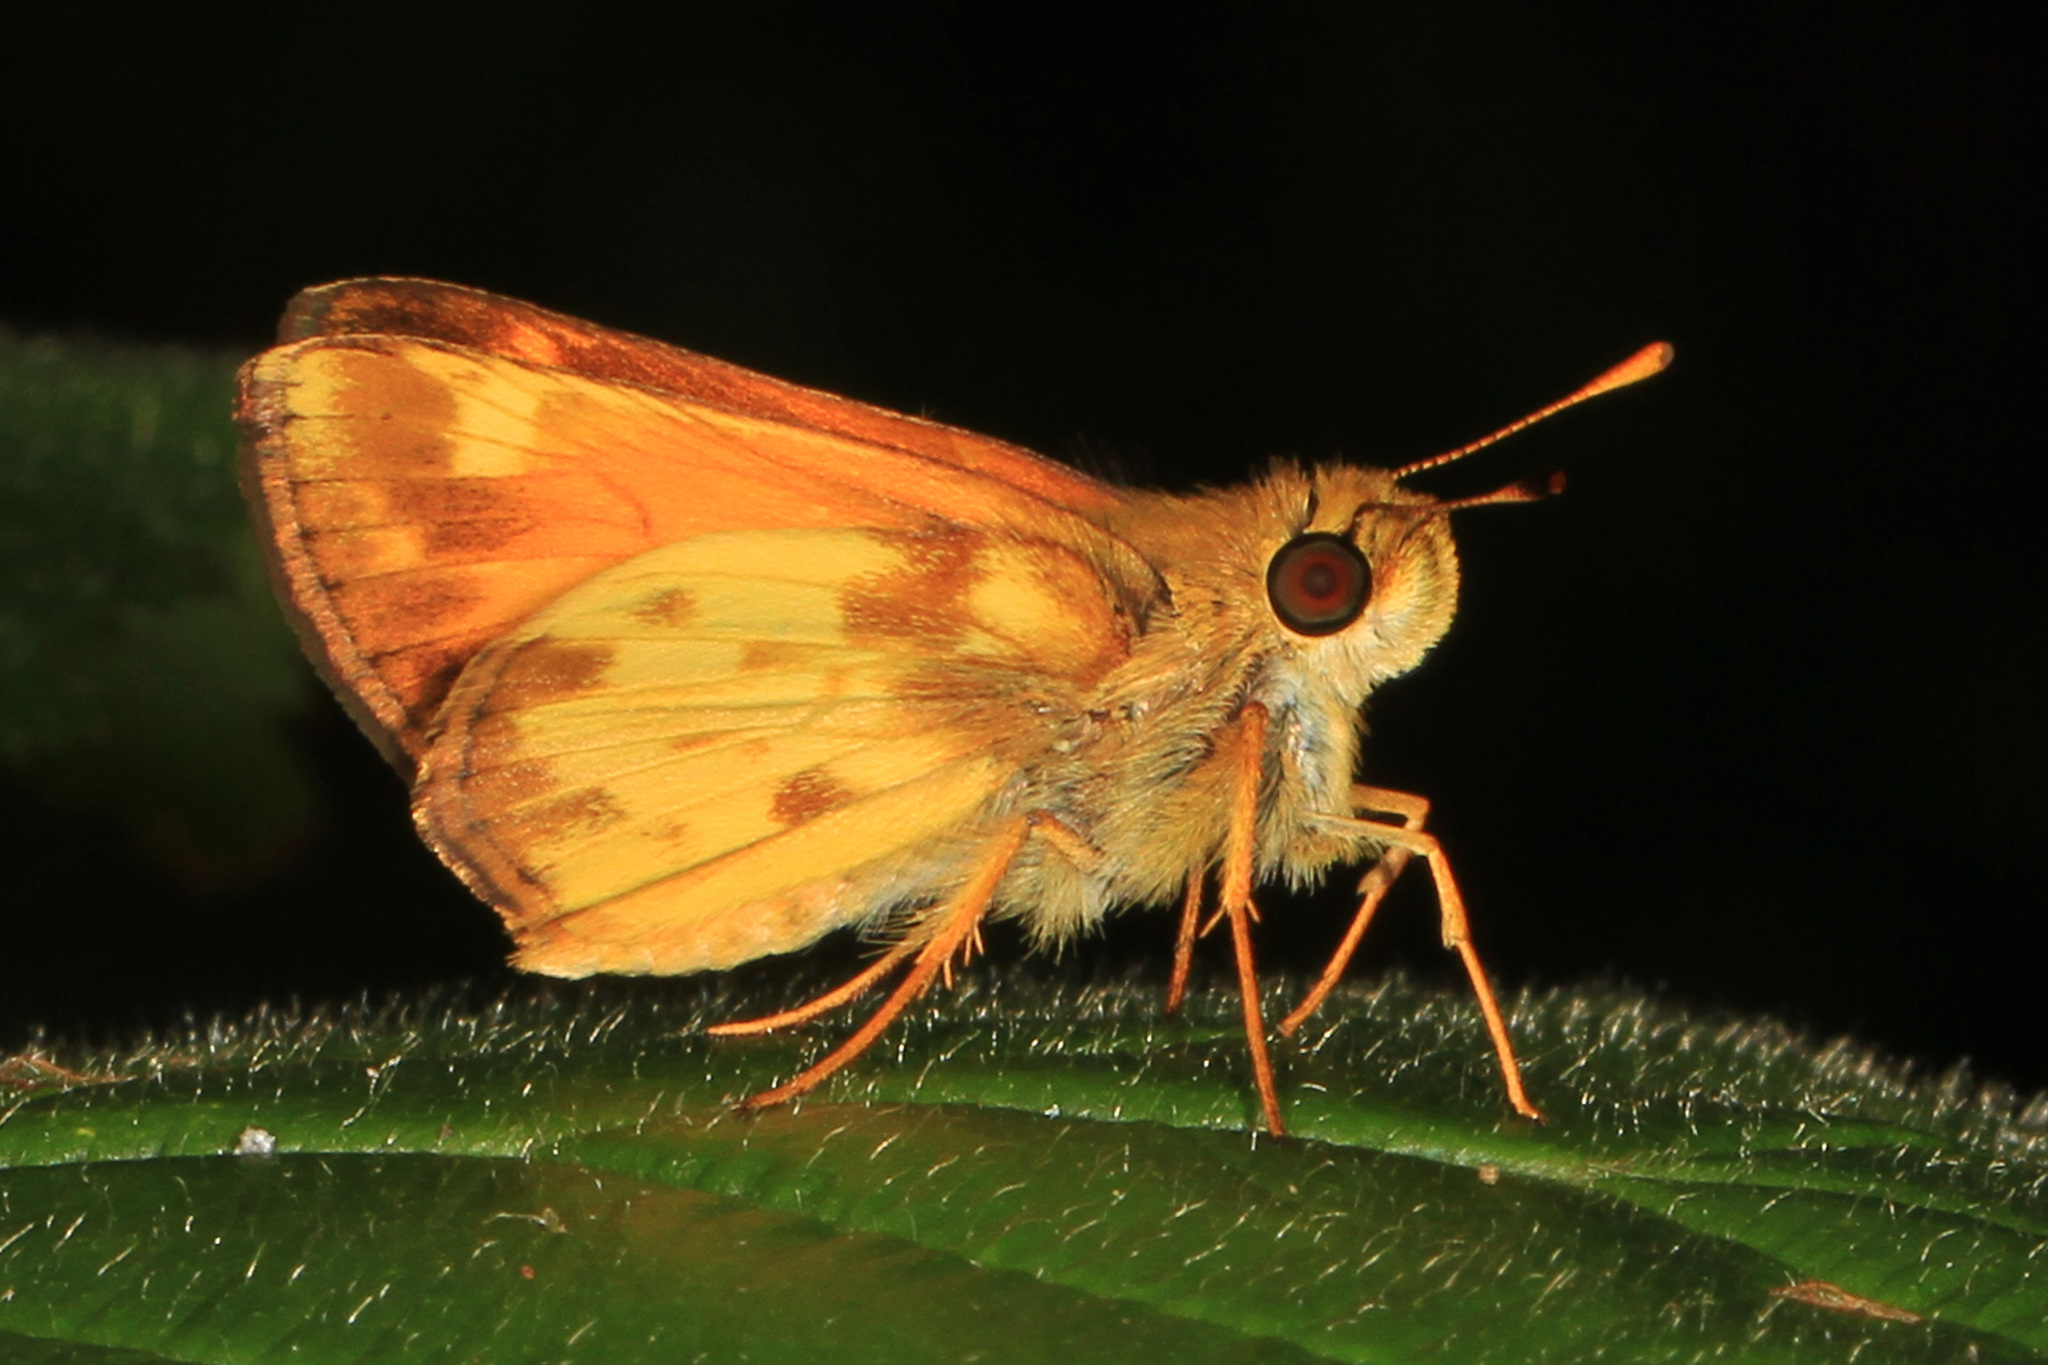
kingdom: Animalia
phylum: Arthropoda
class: Insecta
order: Lepidoptera
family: Hesperiidae
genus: Lon
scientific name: Lon zabulon
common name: Zabulon skipper
